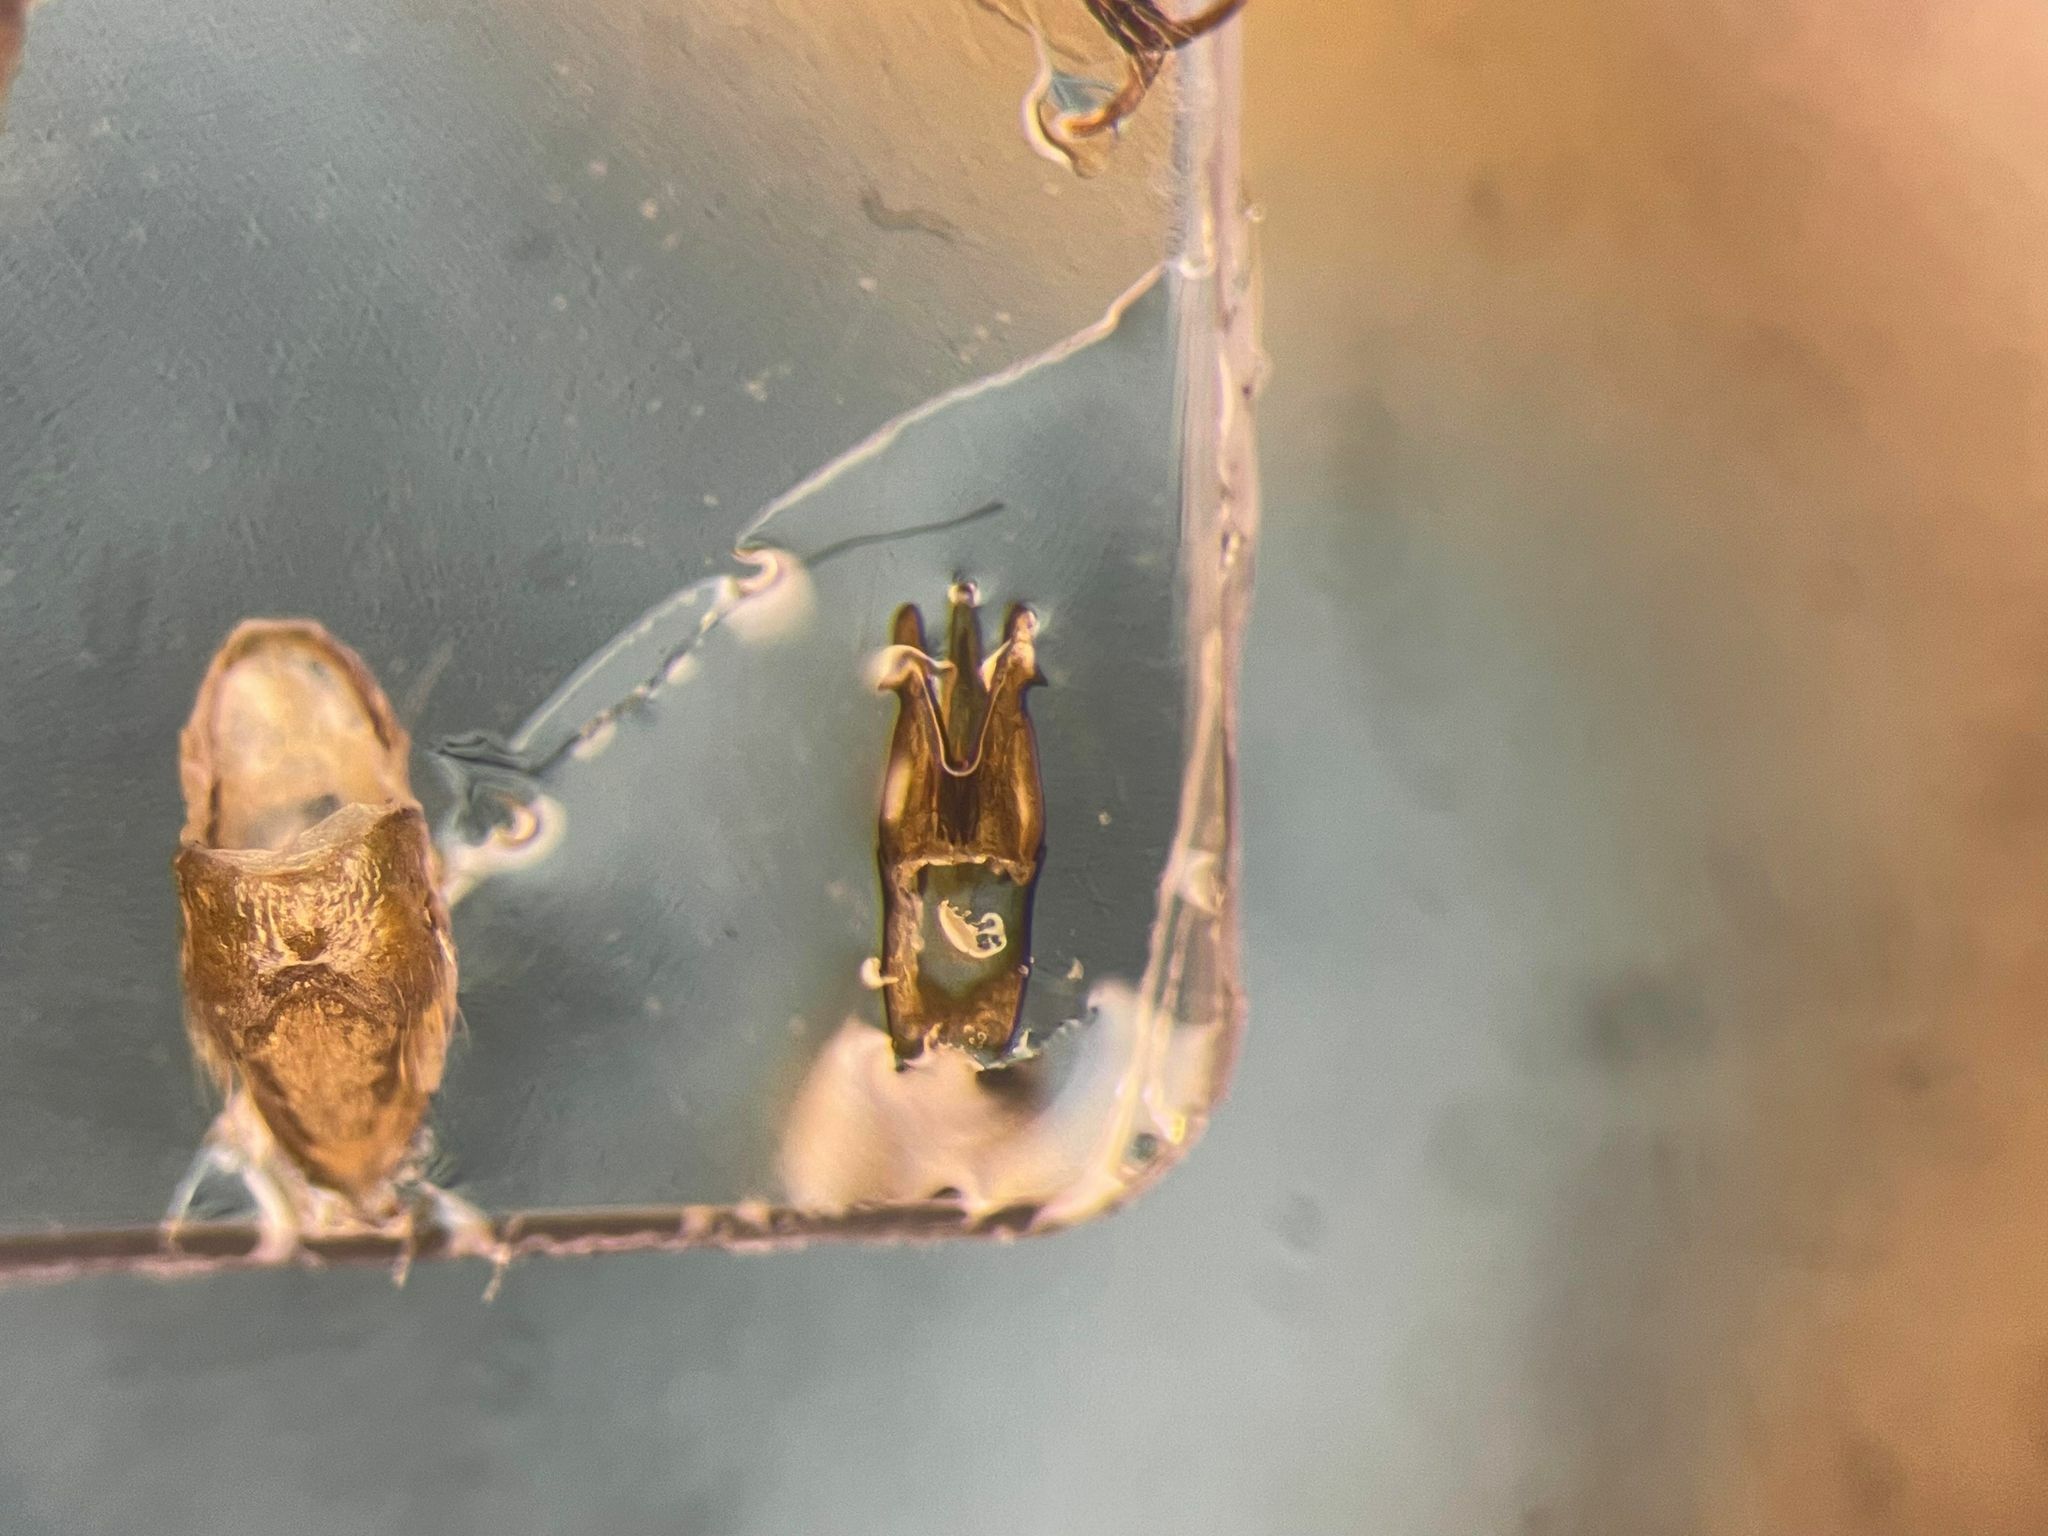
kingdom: Animalia
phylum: Arthropoda
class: Insecta
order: Coleoptera
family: Elateridae
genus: Setasomus
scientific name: Setasomus aratus
